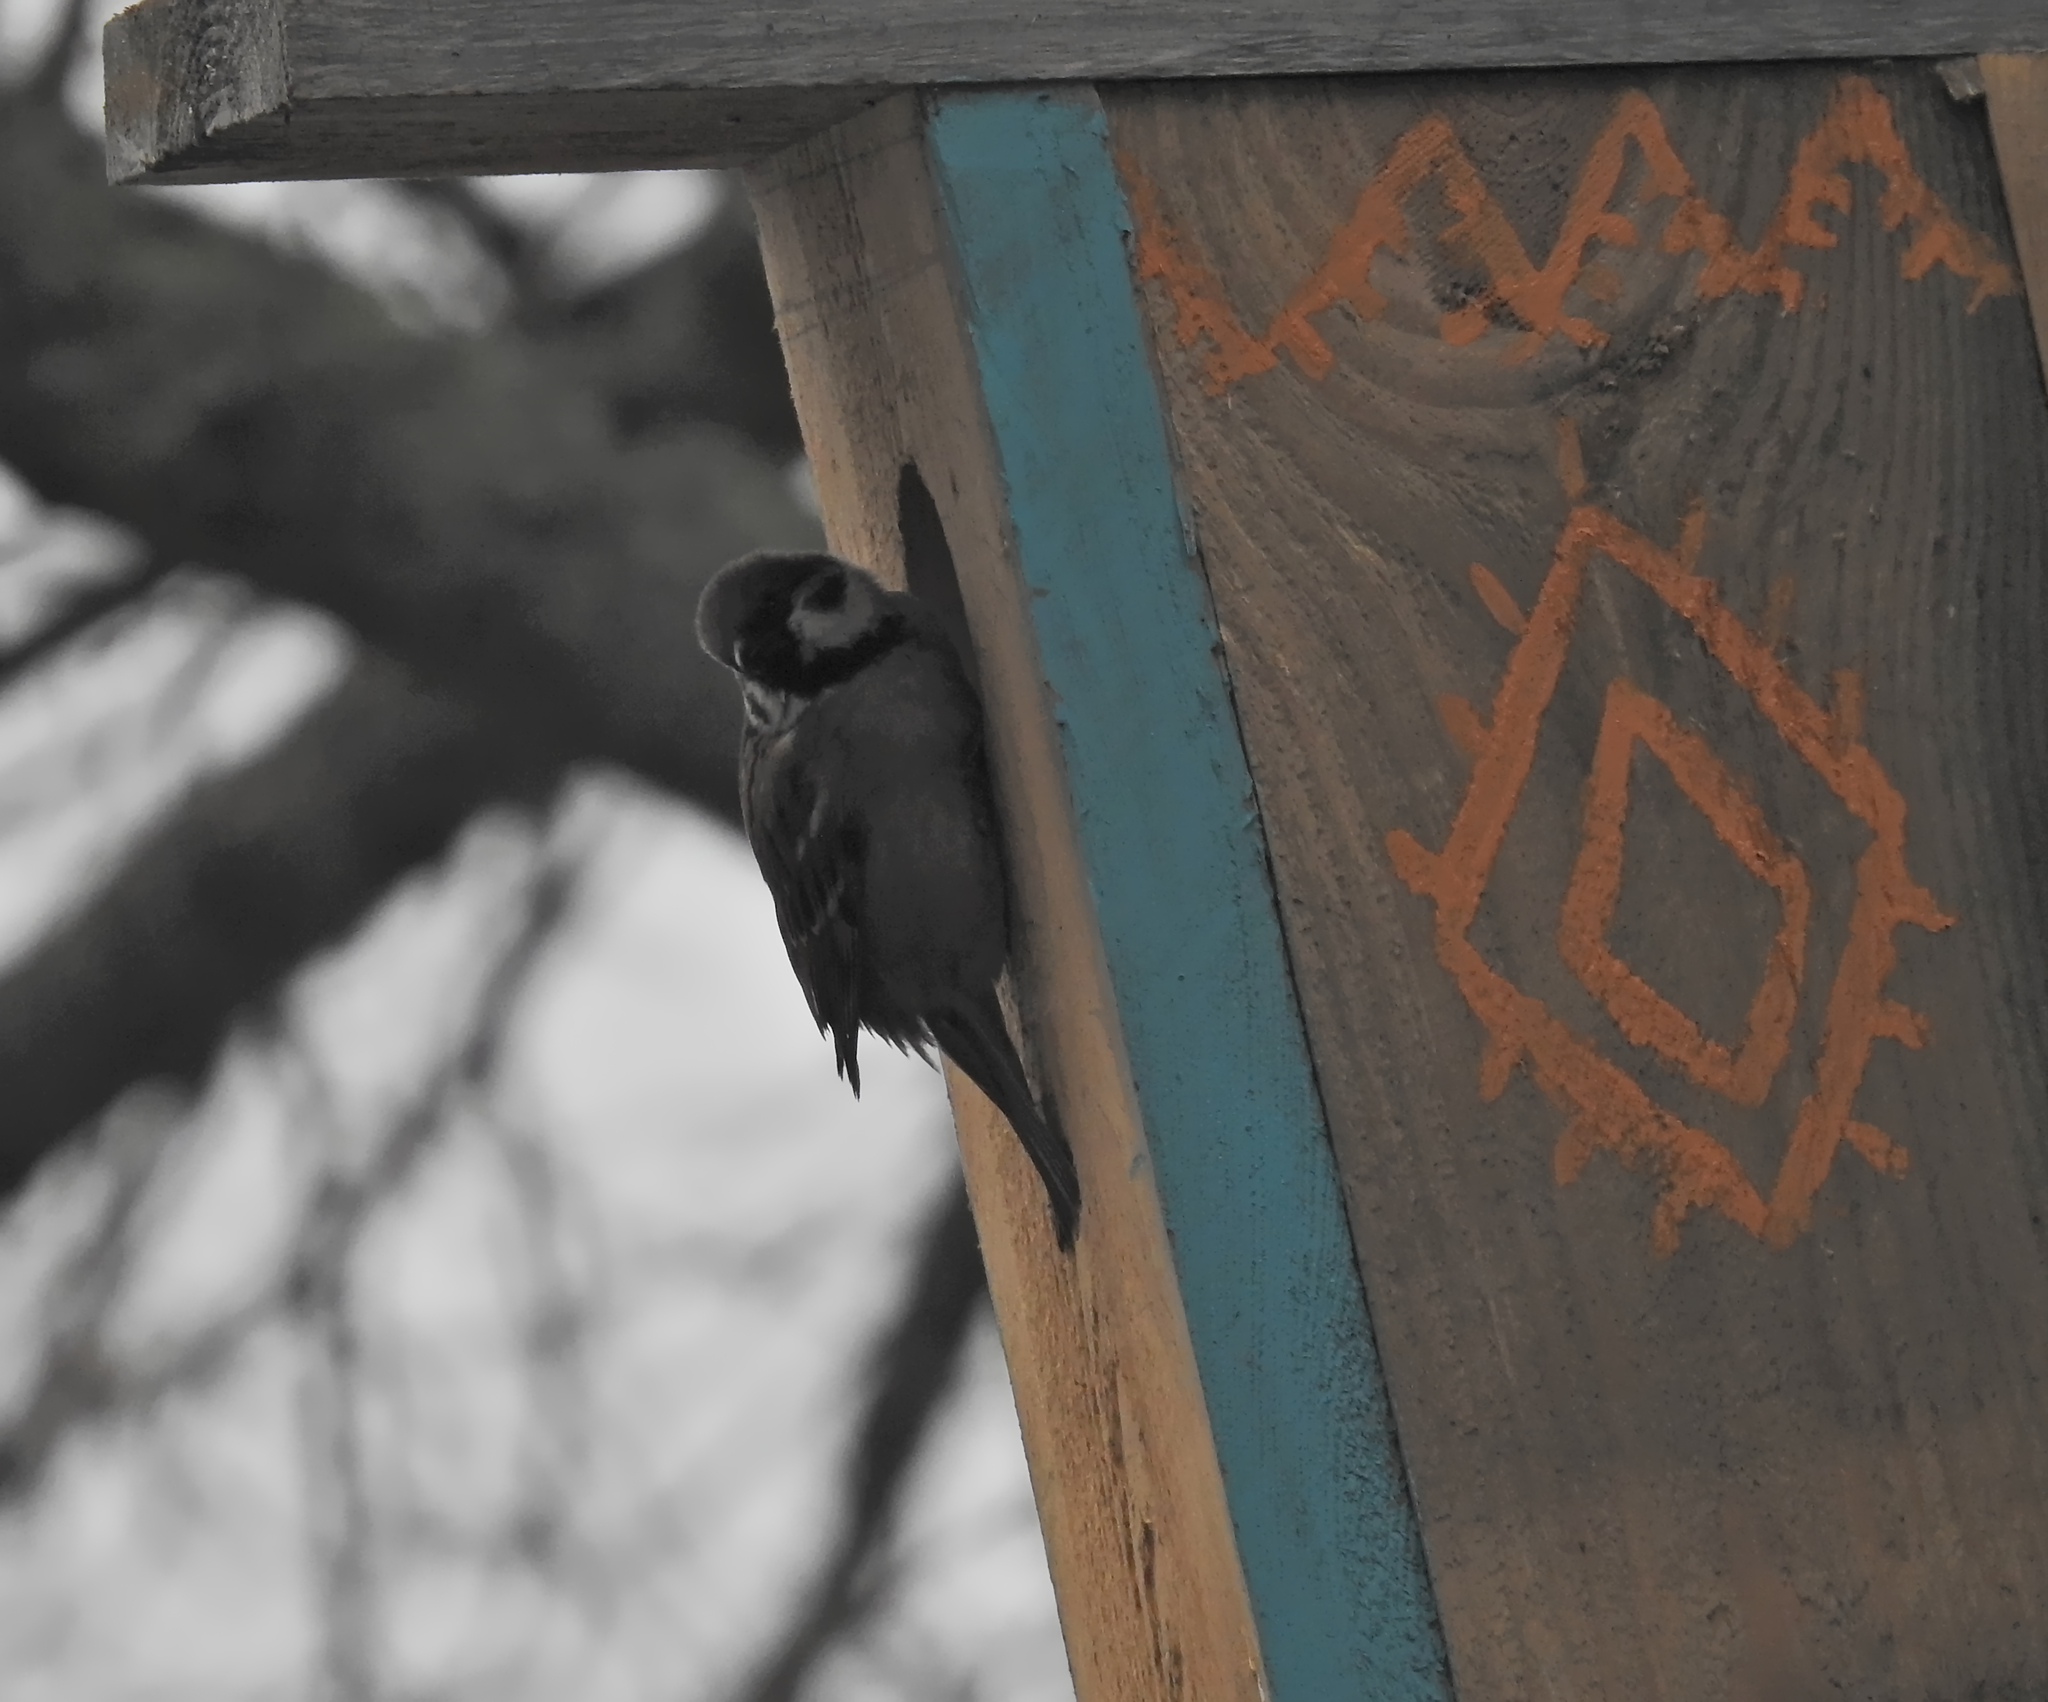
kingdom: Animalia
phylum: Chordata
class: Aves
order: Passeriformes
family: Passeridae
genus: Passer
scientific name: Passer montanus
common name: Eurasian tree sparrow
